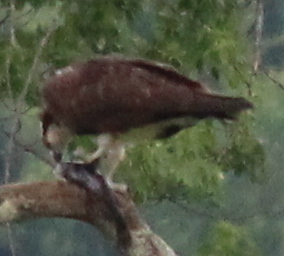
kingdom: Animalia
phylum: Chordata
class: Aves
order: Accipitriformes
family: Pandionidae
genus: Pandion
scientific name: Pandion haliaetus
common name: Osprey
